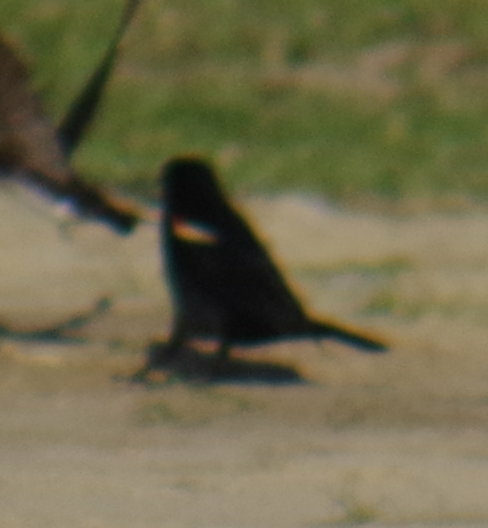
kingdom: Animalia
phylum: Chordata
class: Aves
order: Passeriformes
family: Icteridae
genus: Agelaius
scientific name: Agelaius phoeniceus
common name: Red-winged blackbird
